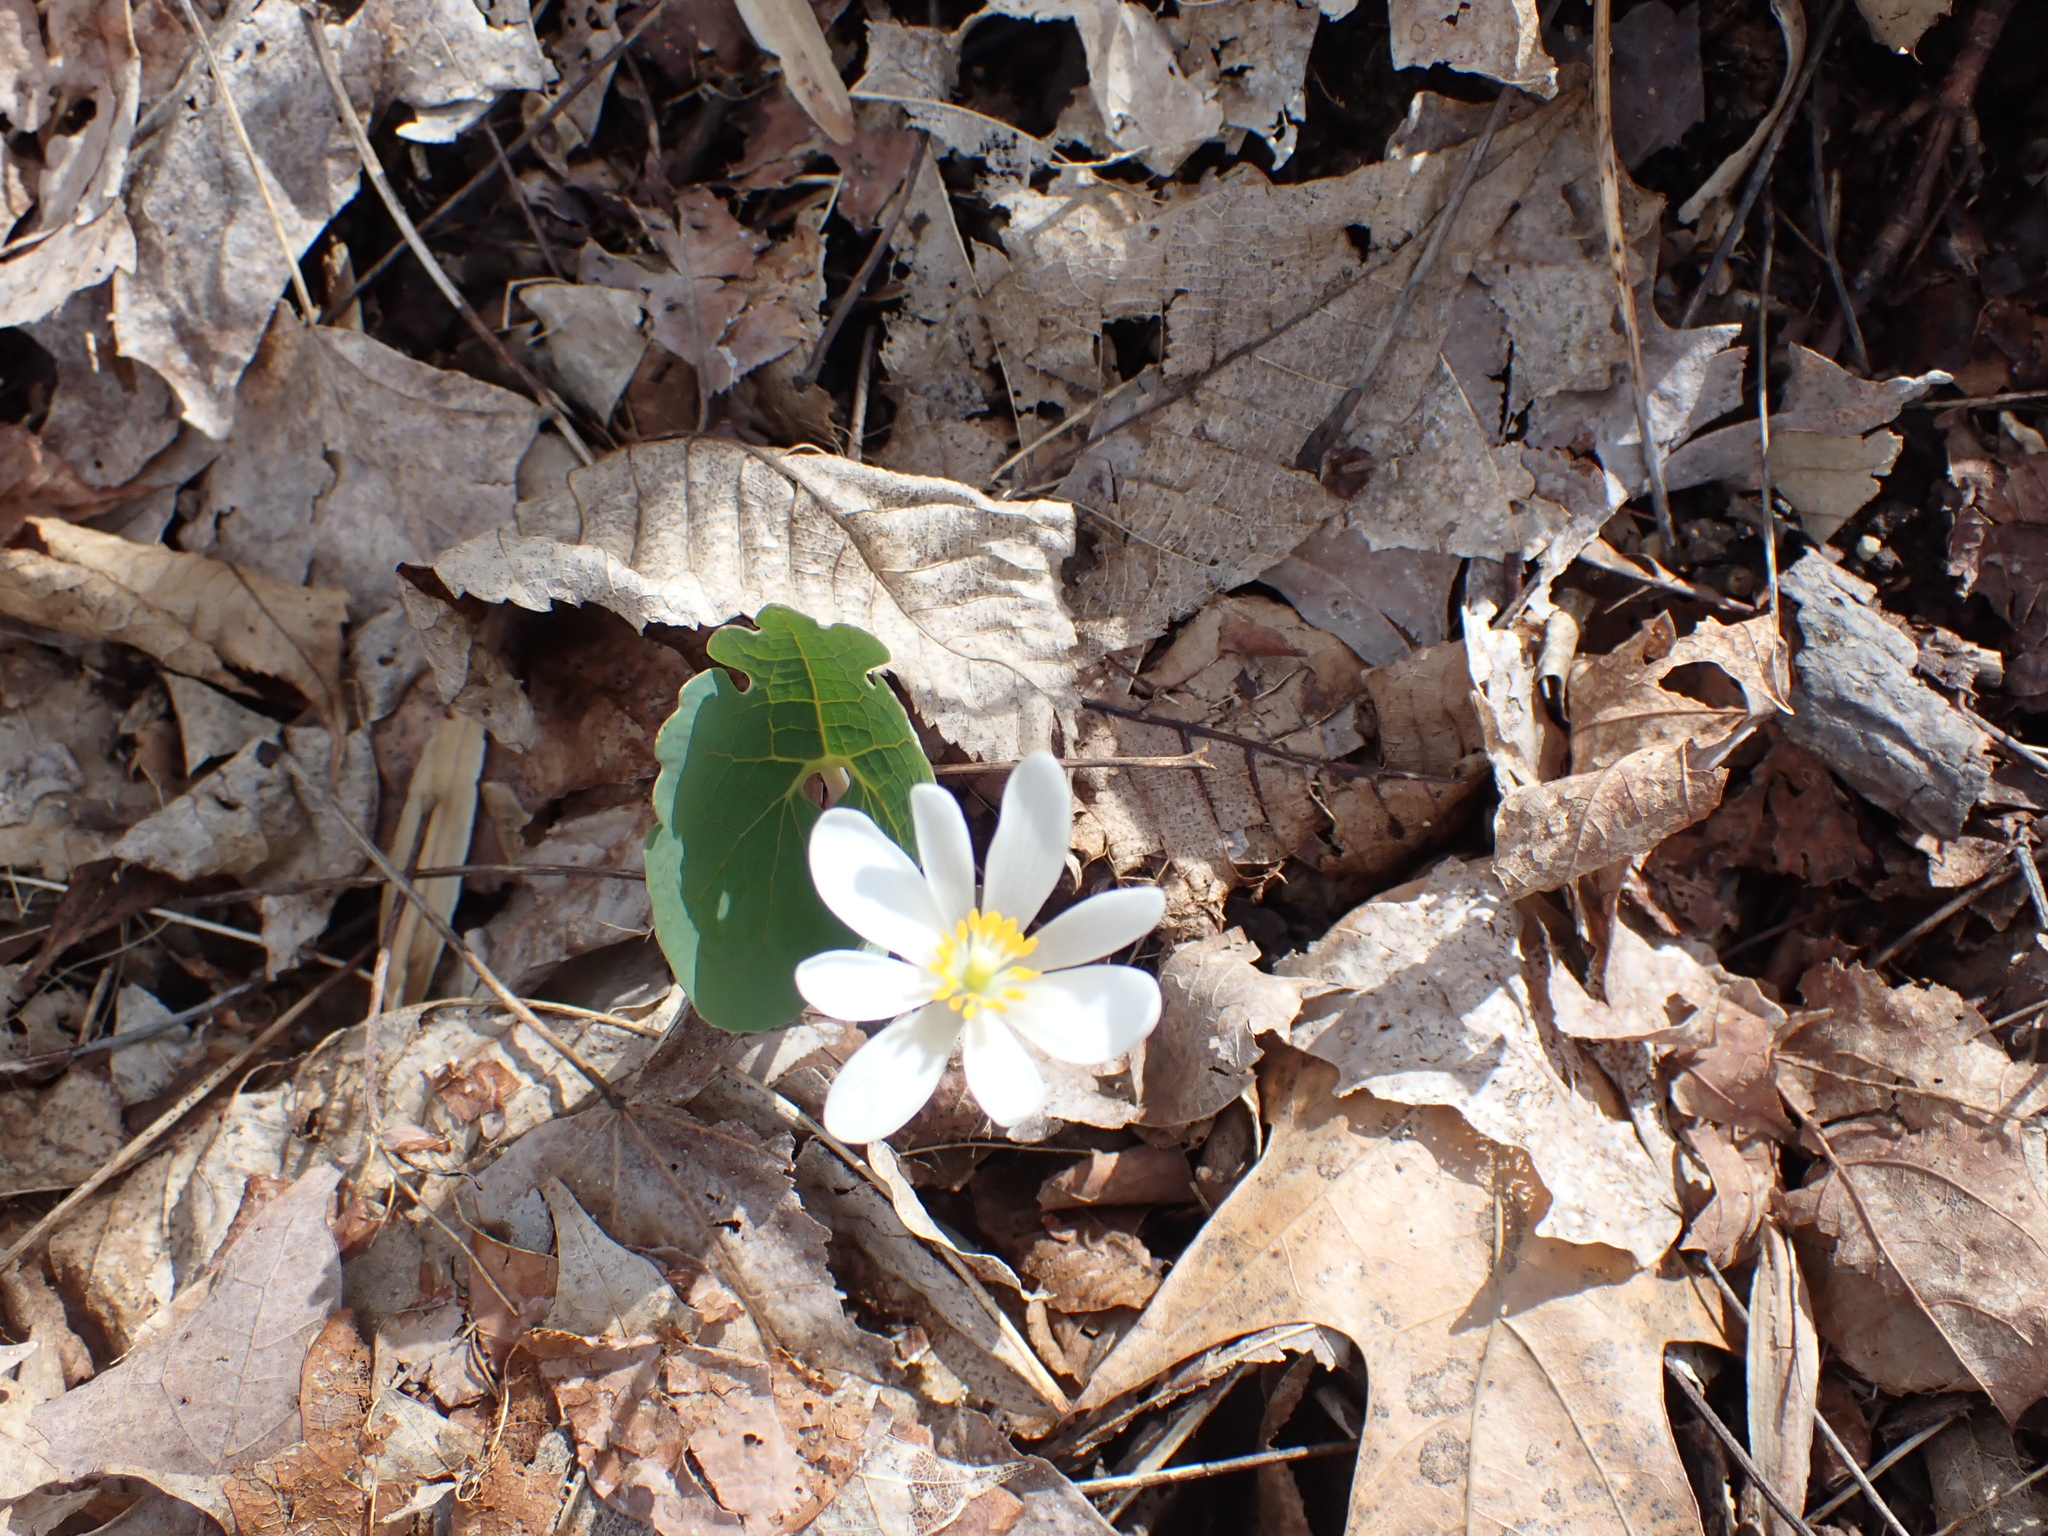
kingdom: Plantae
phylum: Tracheophyta
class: Magnoliopsida
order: Ranunculales
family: Papaveraceae
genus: Sanguinaria
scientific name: Sanguinaria canadensis
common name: Bloodroot
